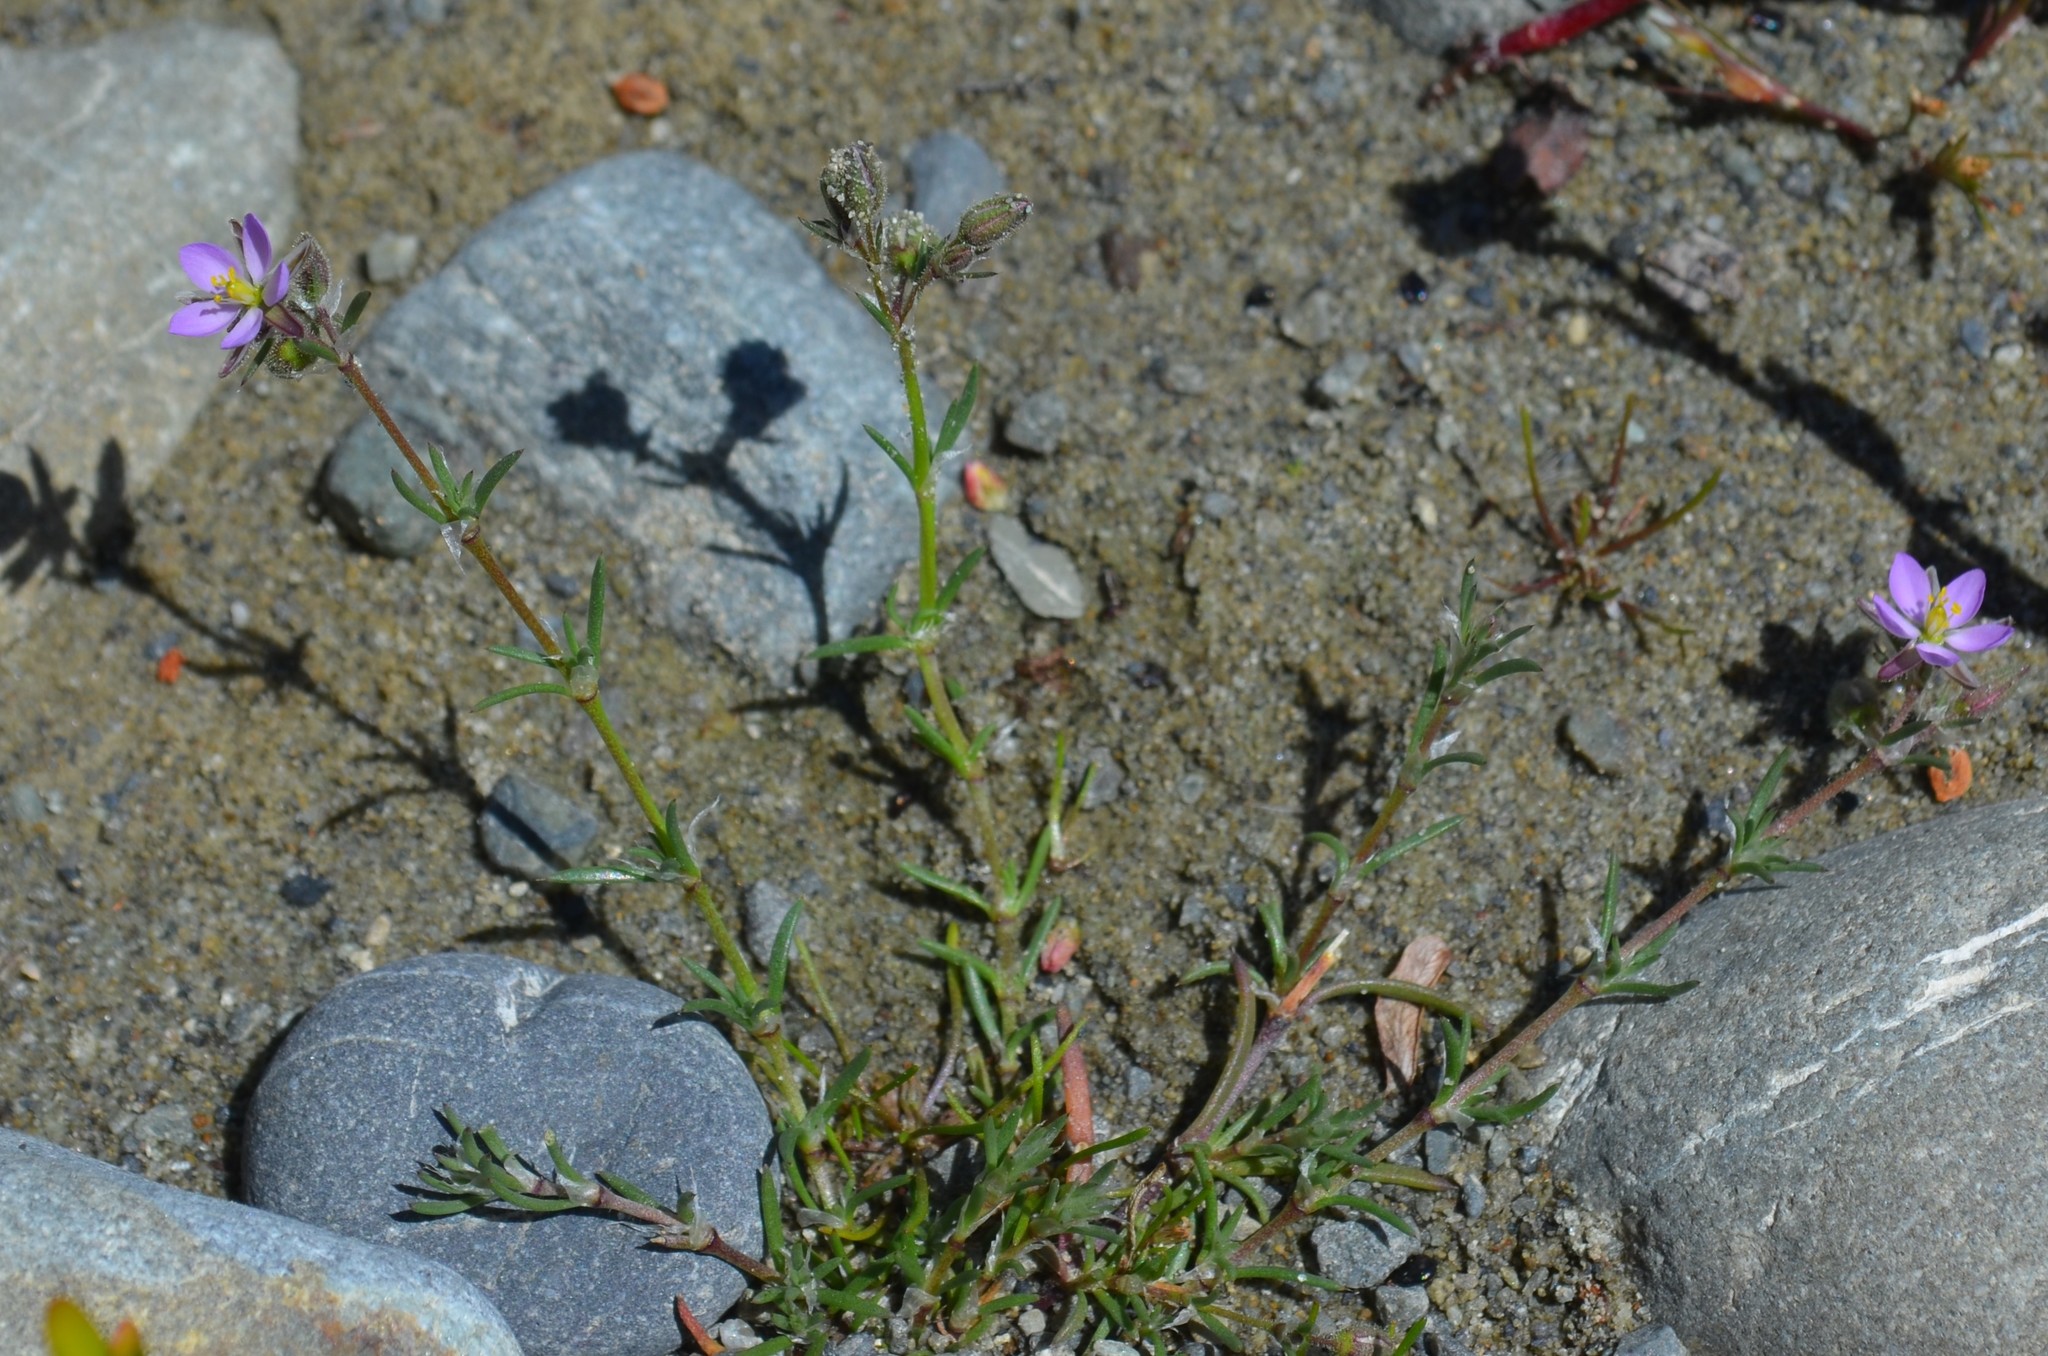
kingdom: Plantae
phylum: Tracheophyta
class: Magnoliopsida
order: Caryophyllales
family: Caryophyllaceae
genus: Spergularia
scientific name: Spergularia rubra
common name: Red sand-spurrey
